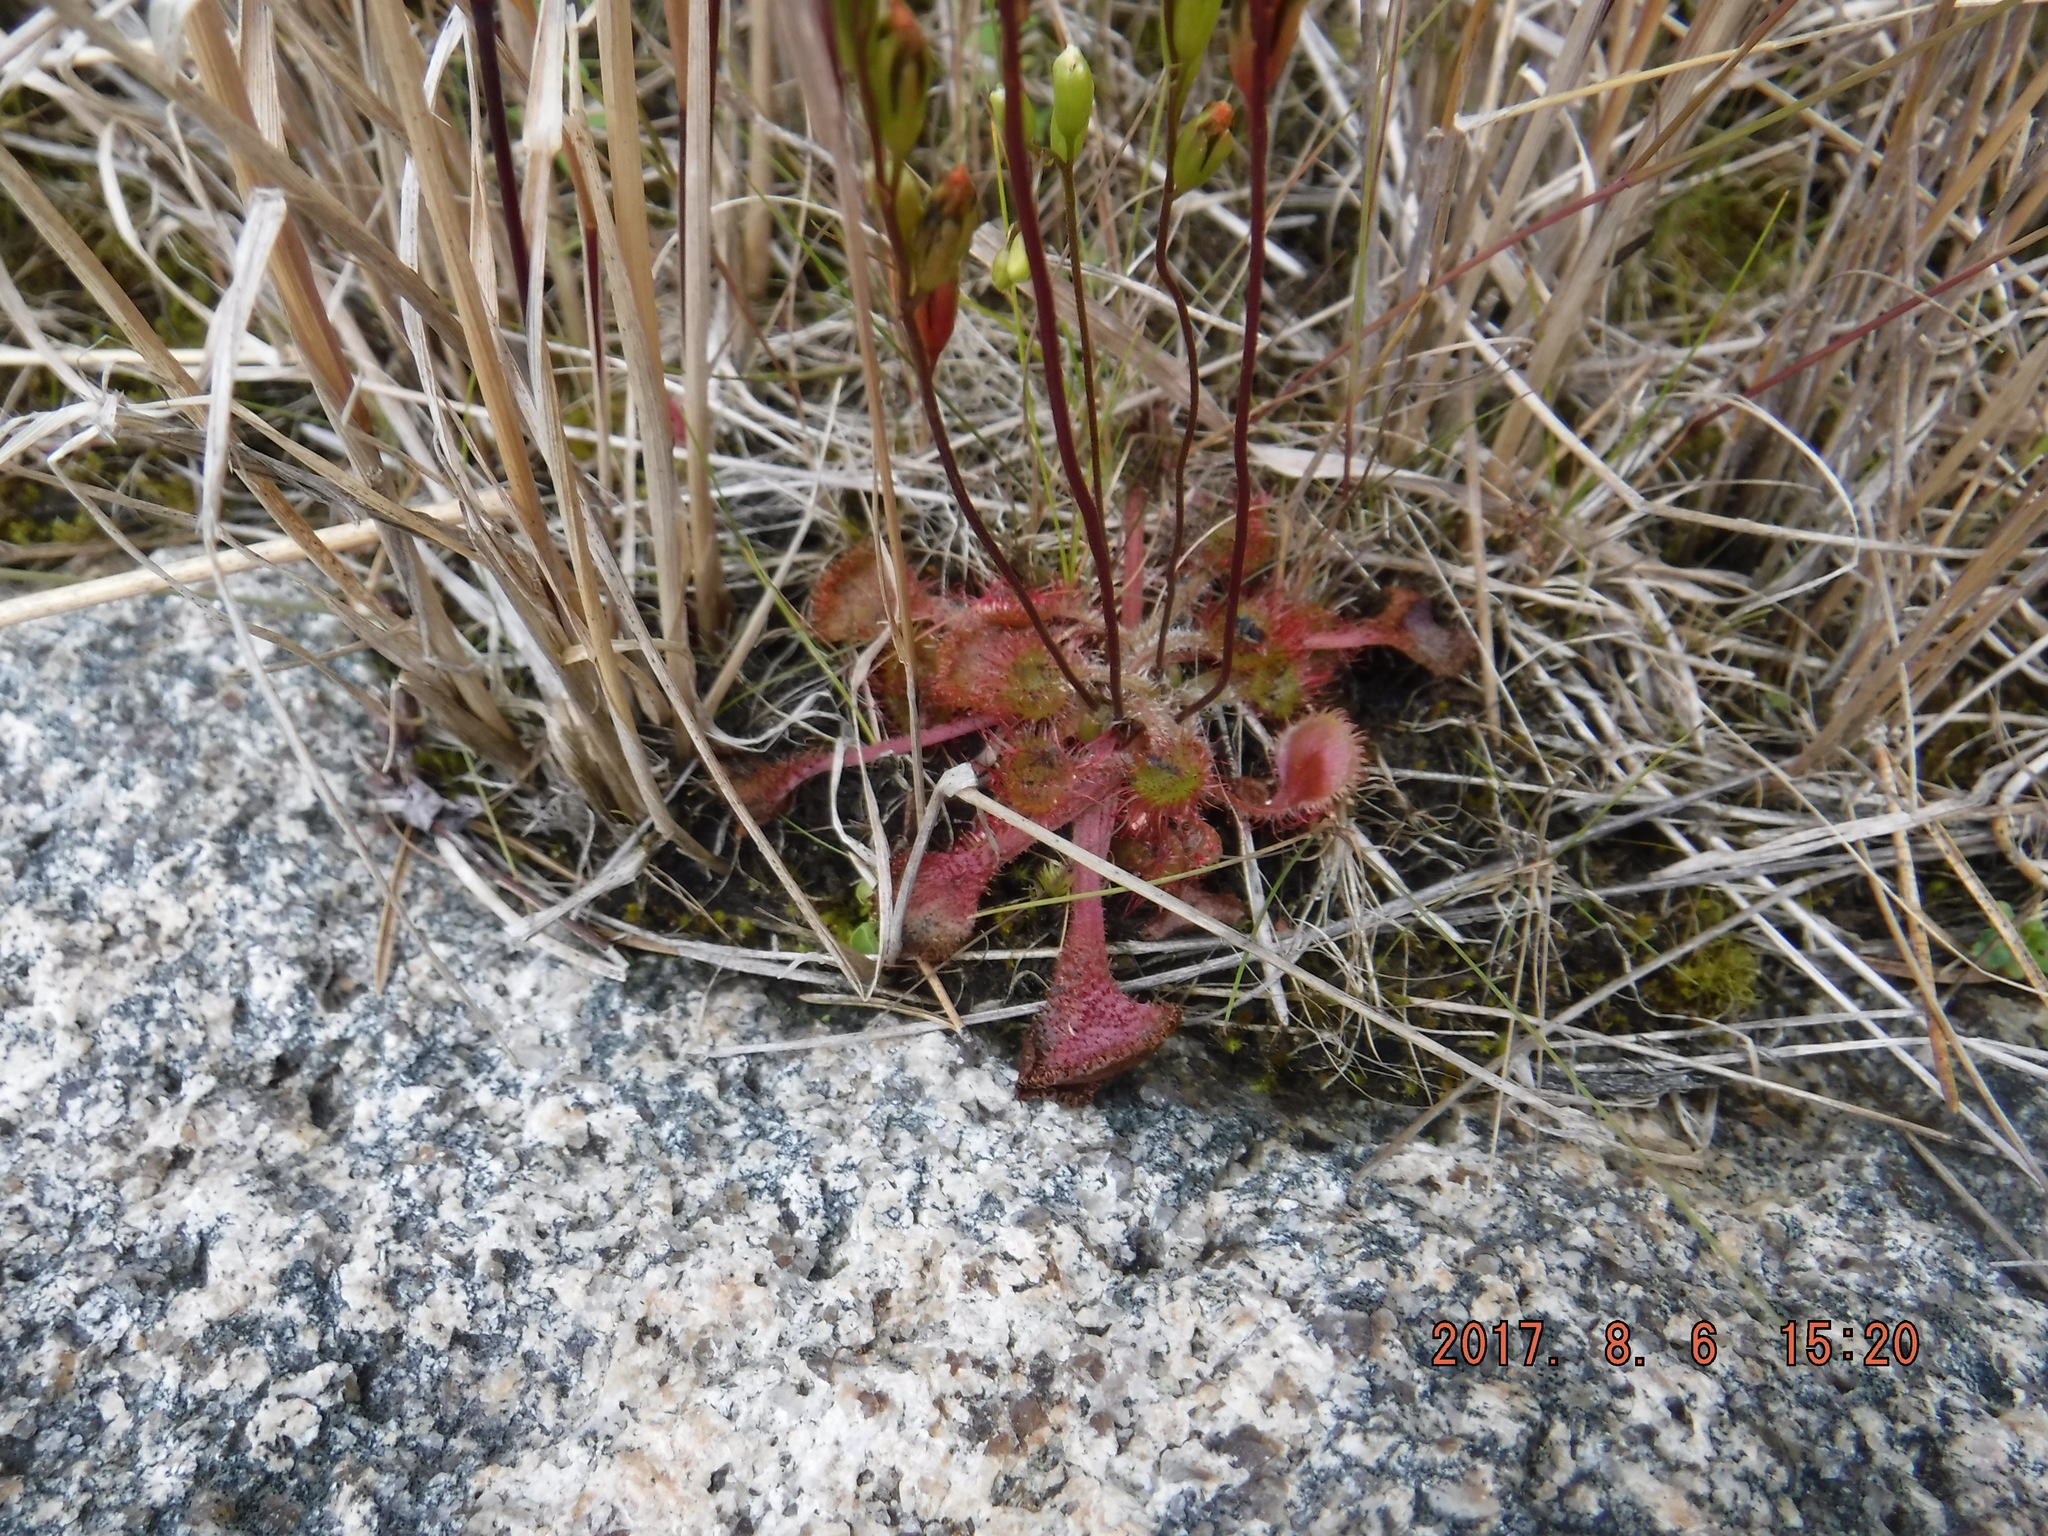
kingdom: Plantae
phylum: Tracheophyta
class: Magnoliopsida
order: Caryophyllales
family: Droseraceae
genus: Drosera
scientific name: Drosera rotundifolia
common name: Round-leaved sundew
